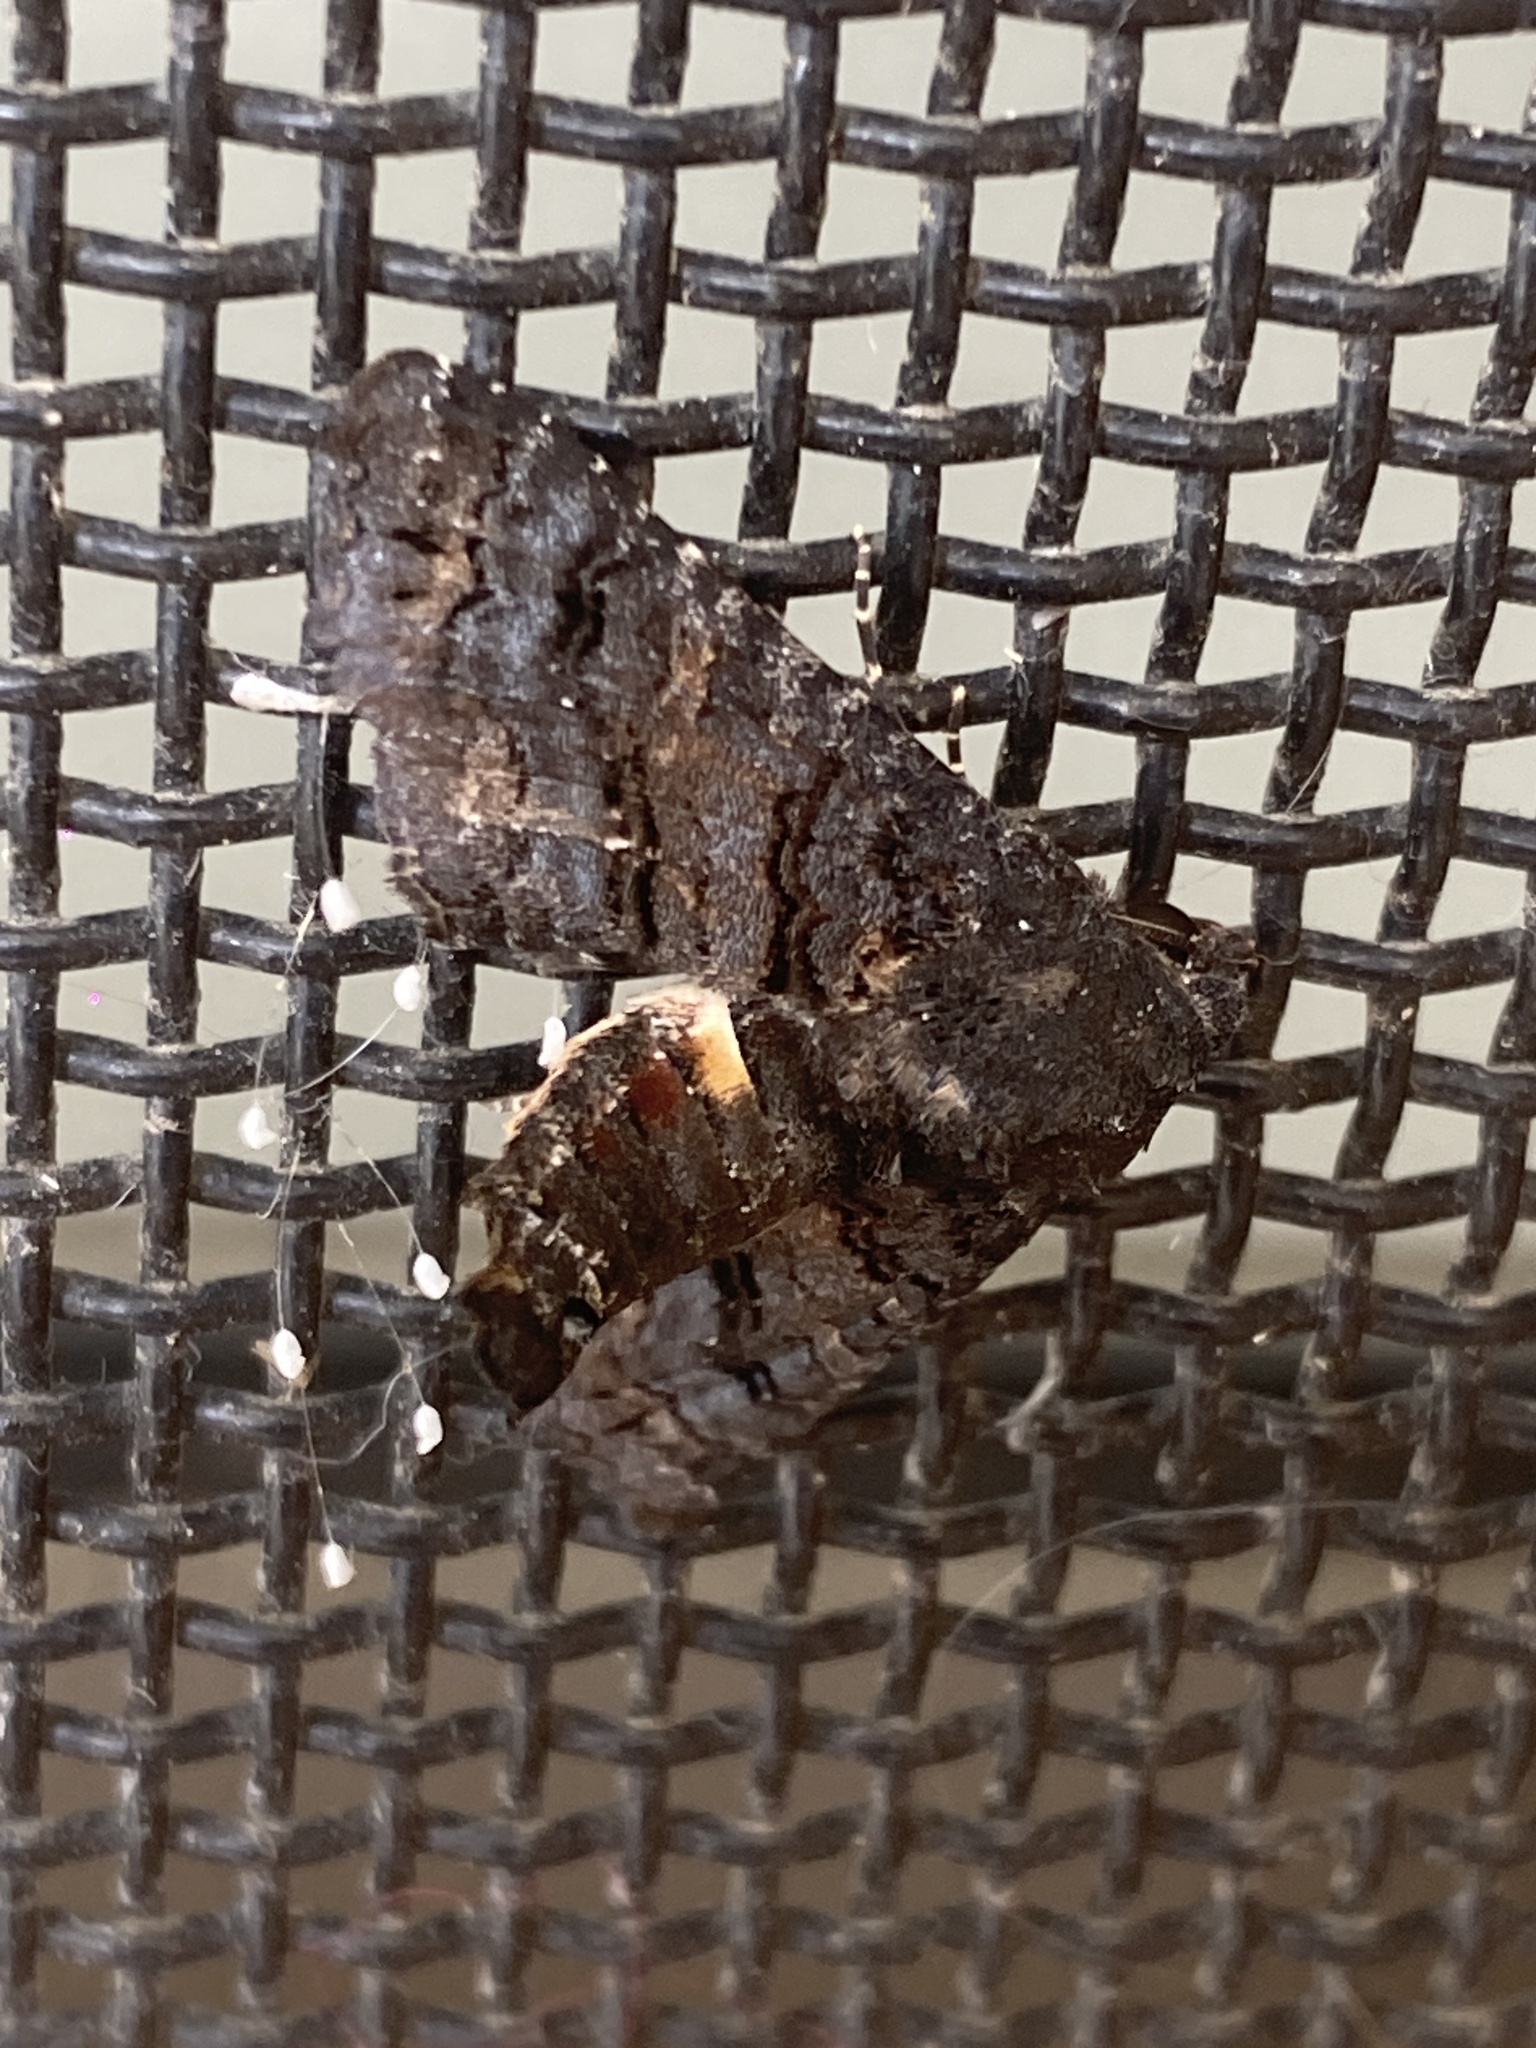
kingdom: Animalia
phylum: Arthropoda
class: Insecta
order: Lepidoptera
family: Euteliidae
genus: Pataeta
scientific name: Pataeta carbo
